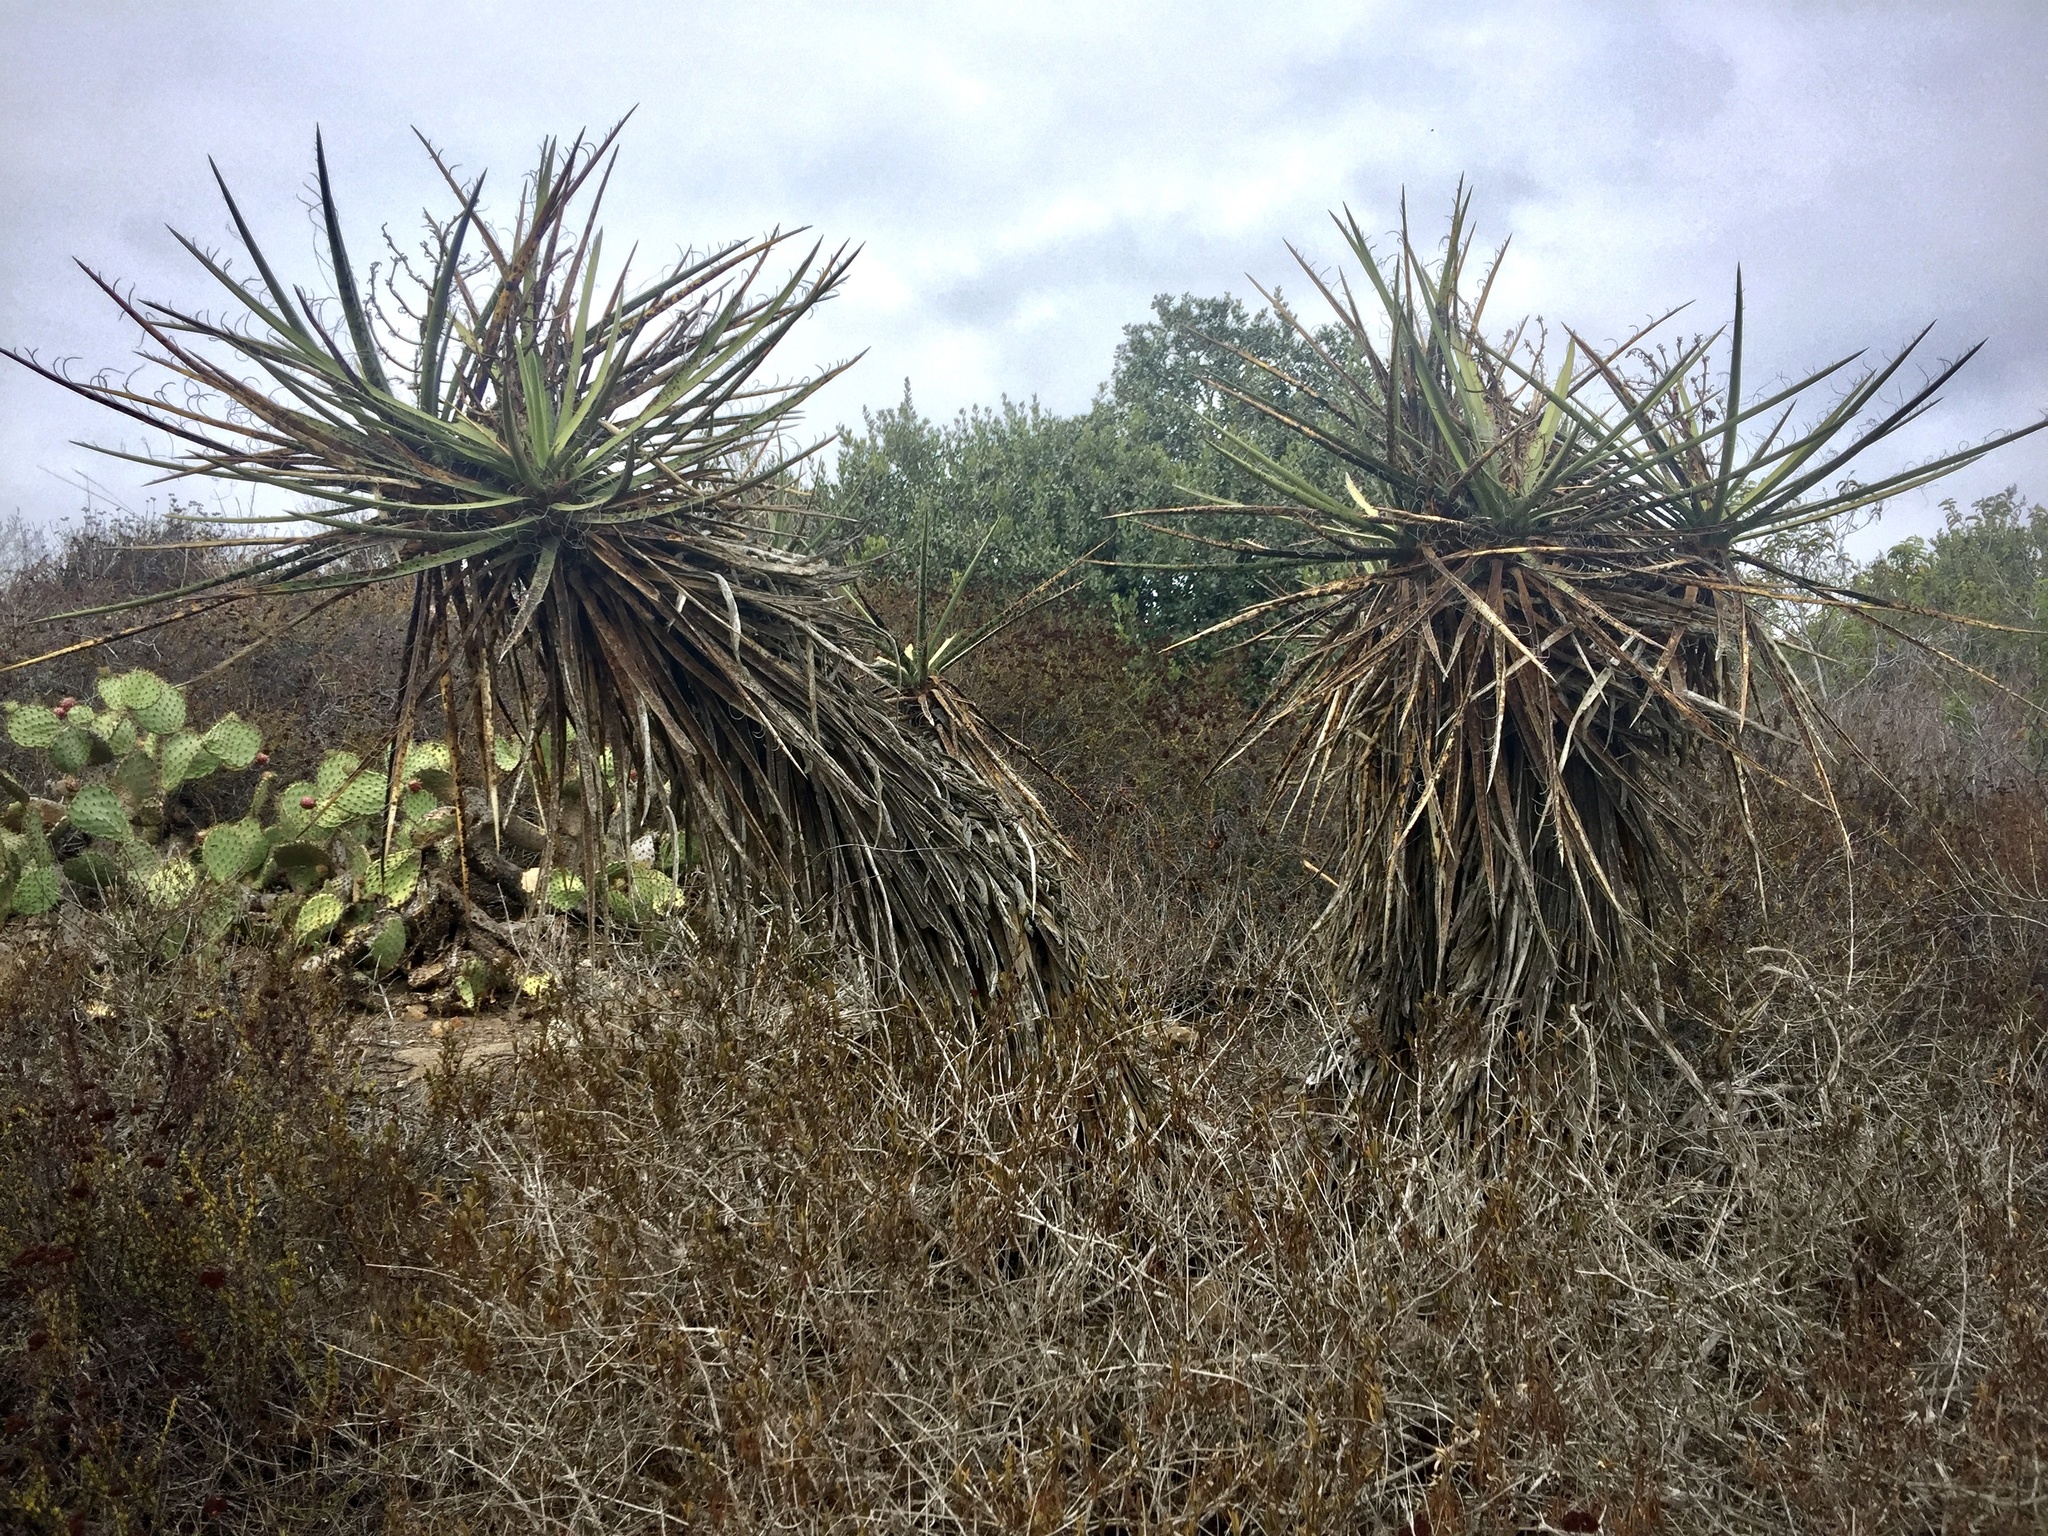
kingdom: Plantae
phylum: Tracheophyta
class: Liliopsida
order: Asparagales
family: Asparagaceae
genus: Yucca
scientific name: Yucca schidigera
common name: Mojave yucca
